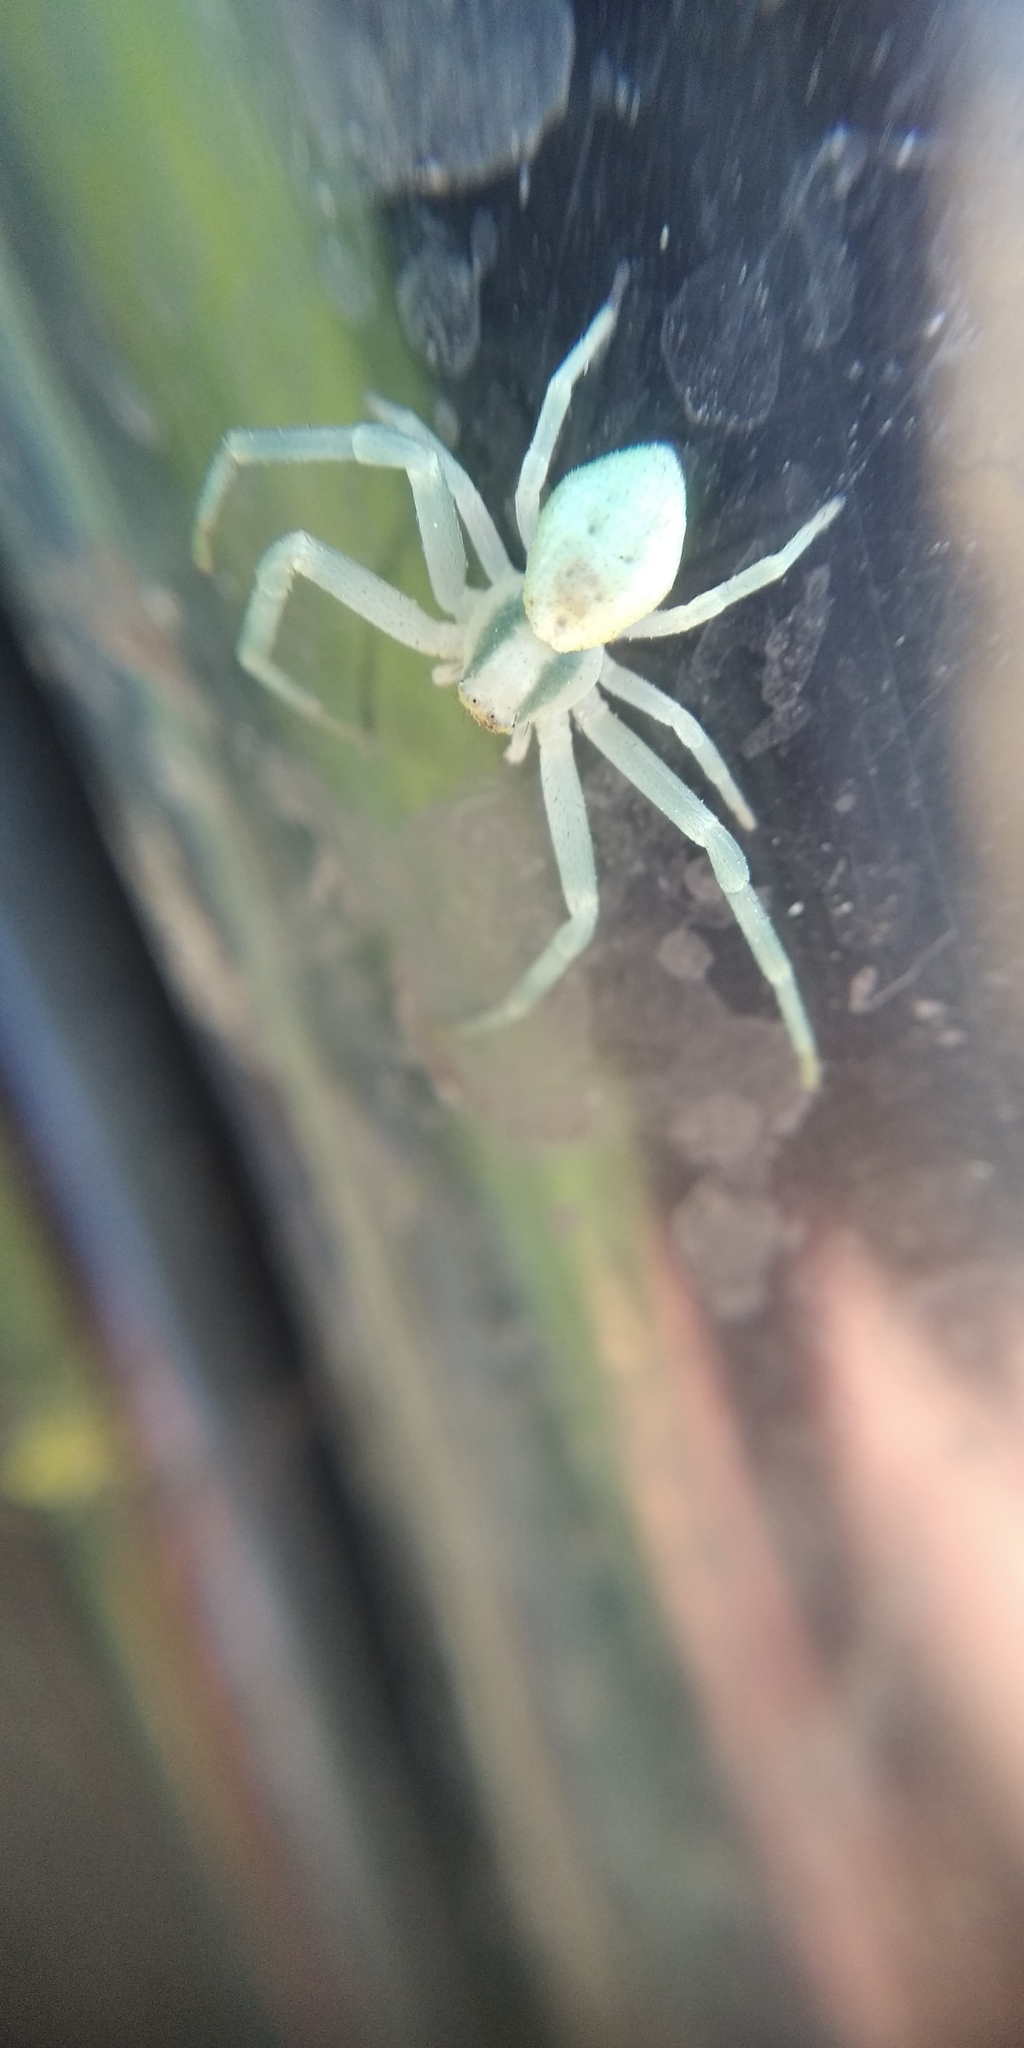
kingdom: Animalia
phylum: Arthropoda
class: Arachnida
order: Araneae
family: Thomisidae
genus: Misumena
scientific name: Misumena vatia
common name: Goldenrod crab spider
